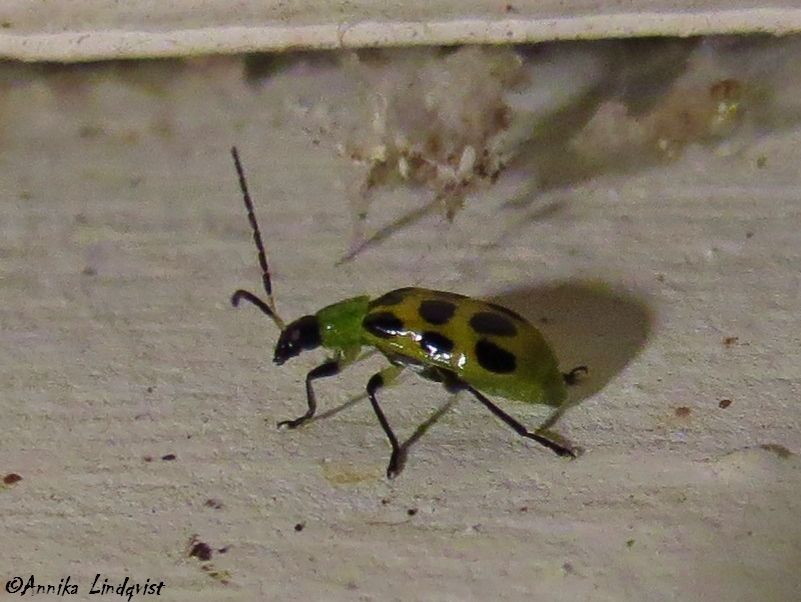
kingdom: Animalia
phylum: Arthropoda
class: Insecta
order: Coleoptera
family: Chrysomelidae
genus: Diabrotica
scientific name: Diabrotica undecimpunctata
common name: Spotted cucumber beetle
